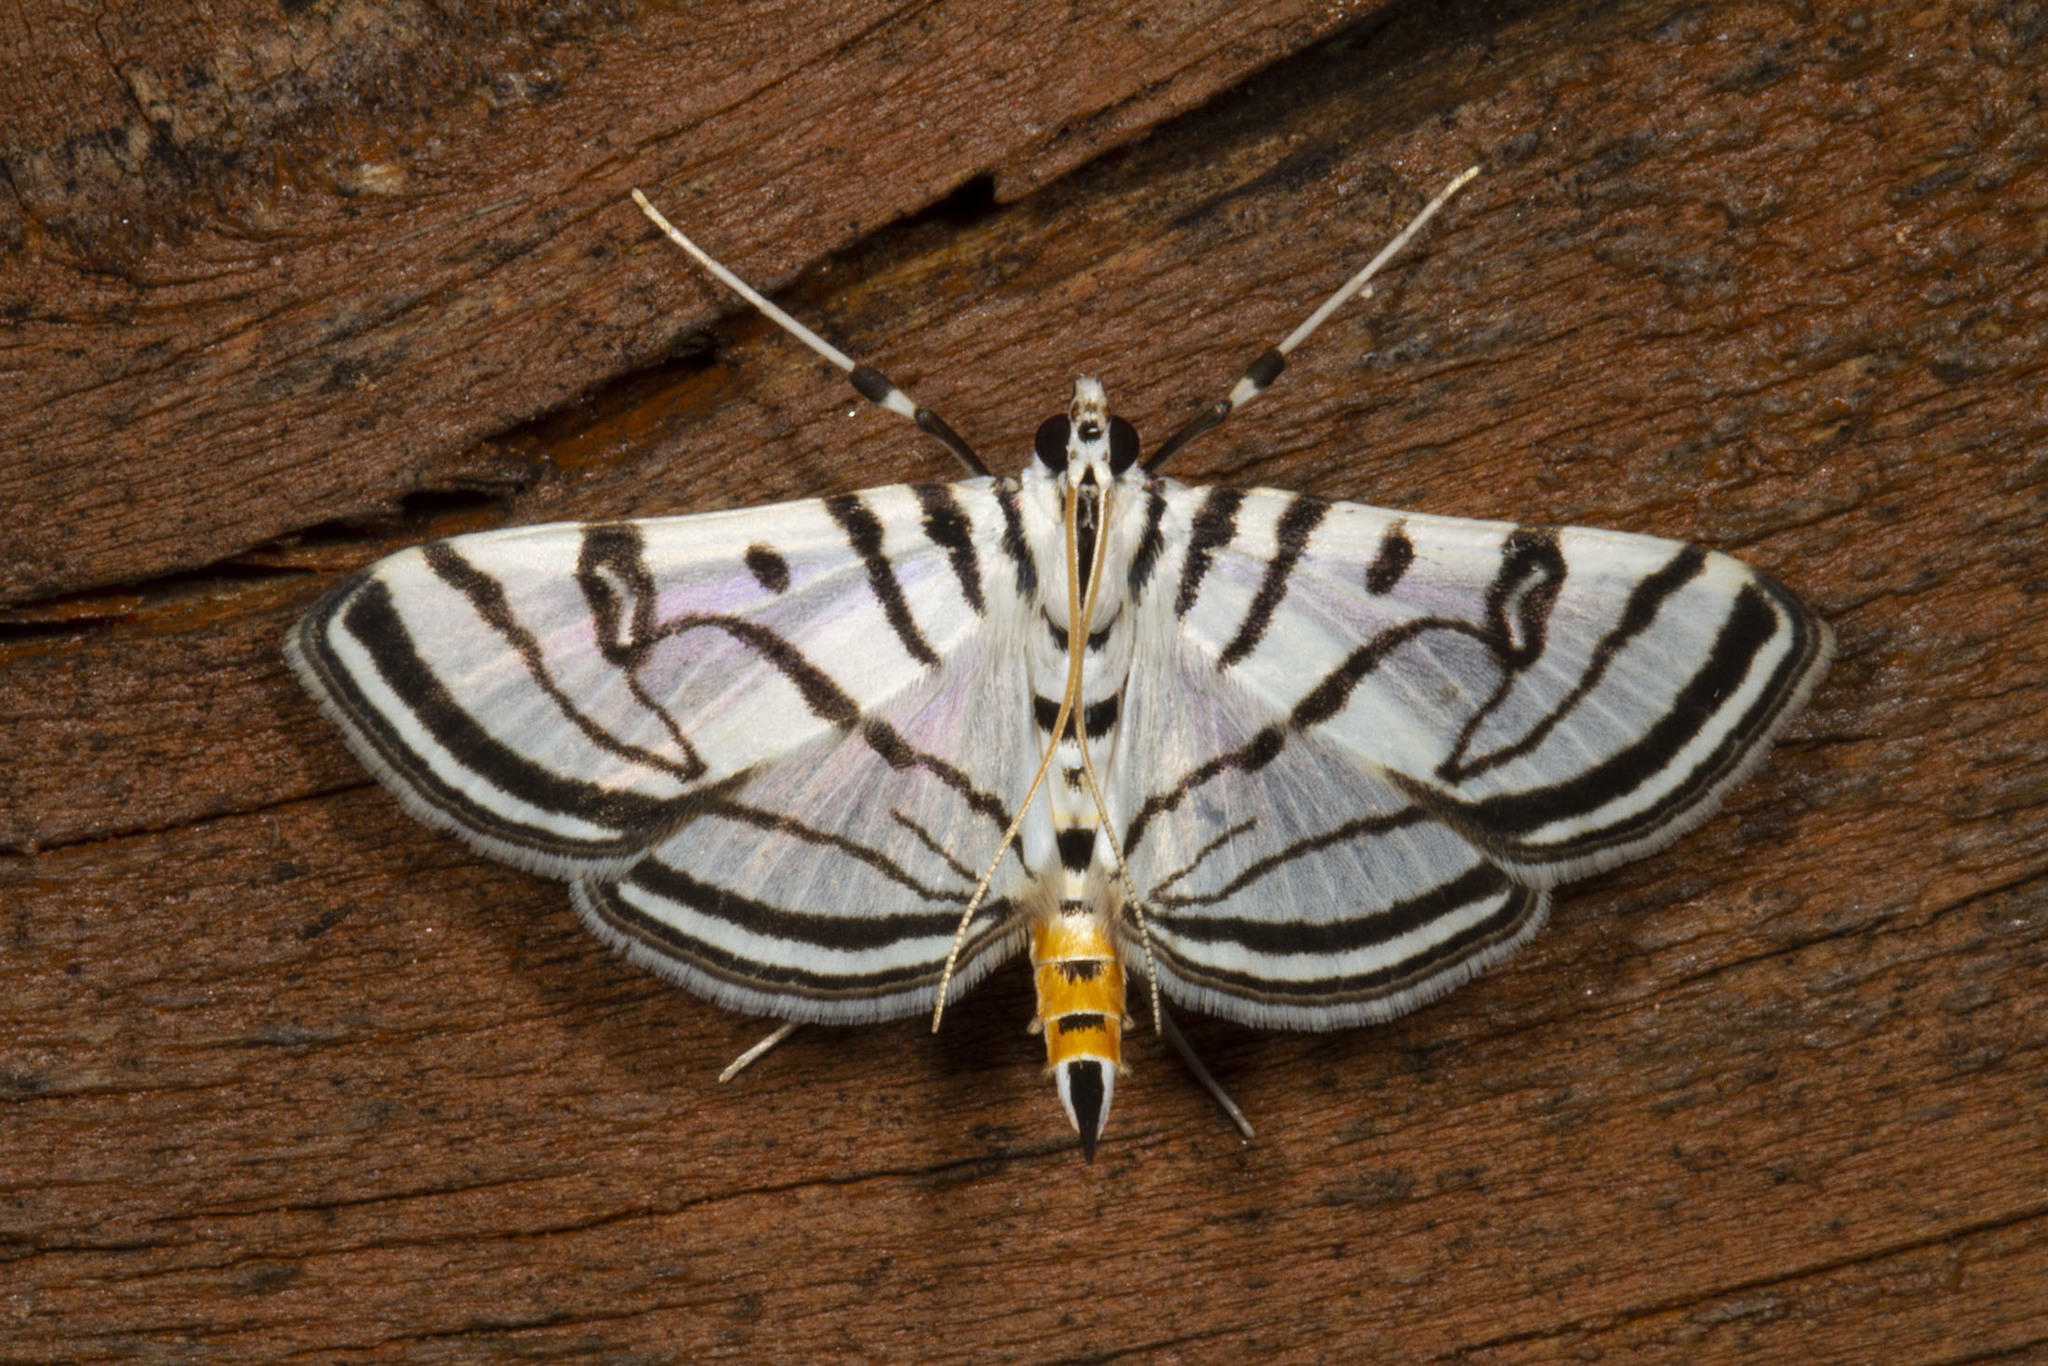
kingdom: Animalia
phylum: Arthropoda
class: Insecta
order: Lepidoptera
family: Crambidae
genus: Conchylodes
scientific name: Conchylodes ovulalis
